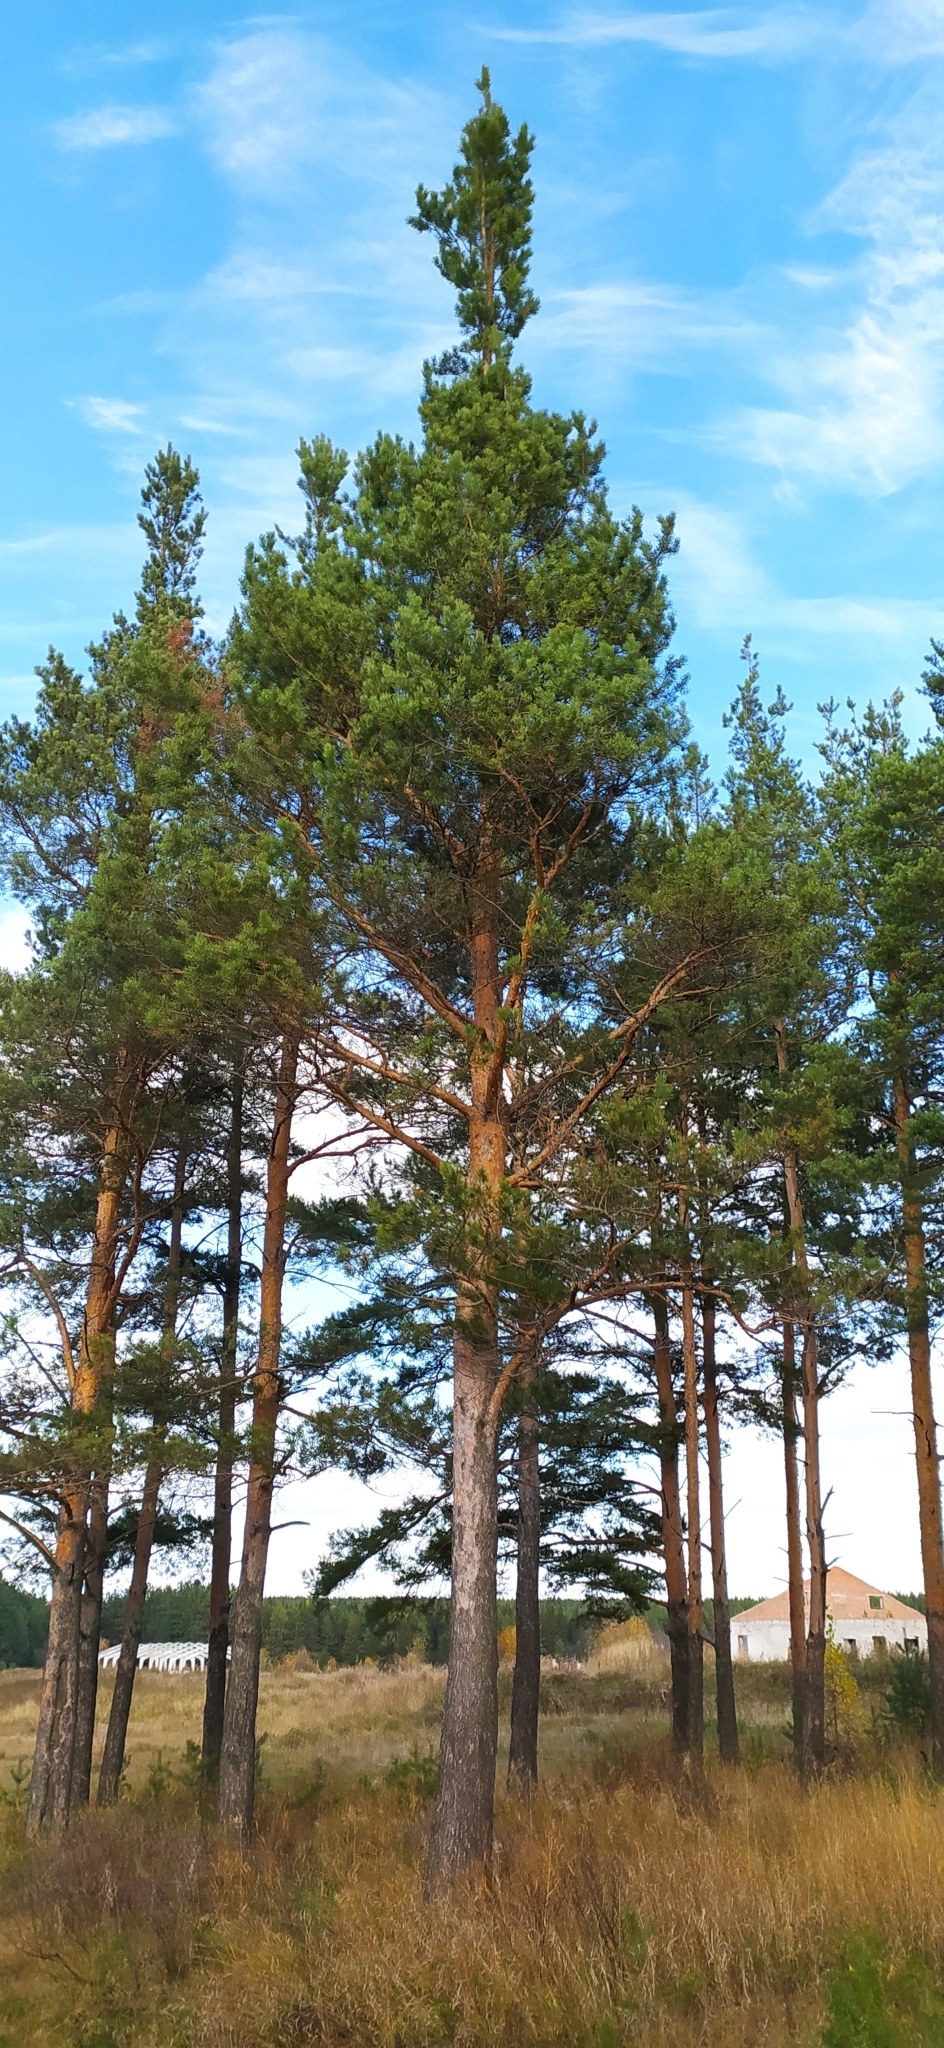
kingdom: Plantae
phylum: Tracheophyta
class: Pinopsida
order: Pinales
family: Pinaceae
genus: Pinus
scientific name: Pinus sylvestris
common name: Scots pine
